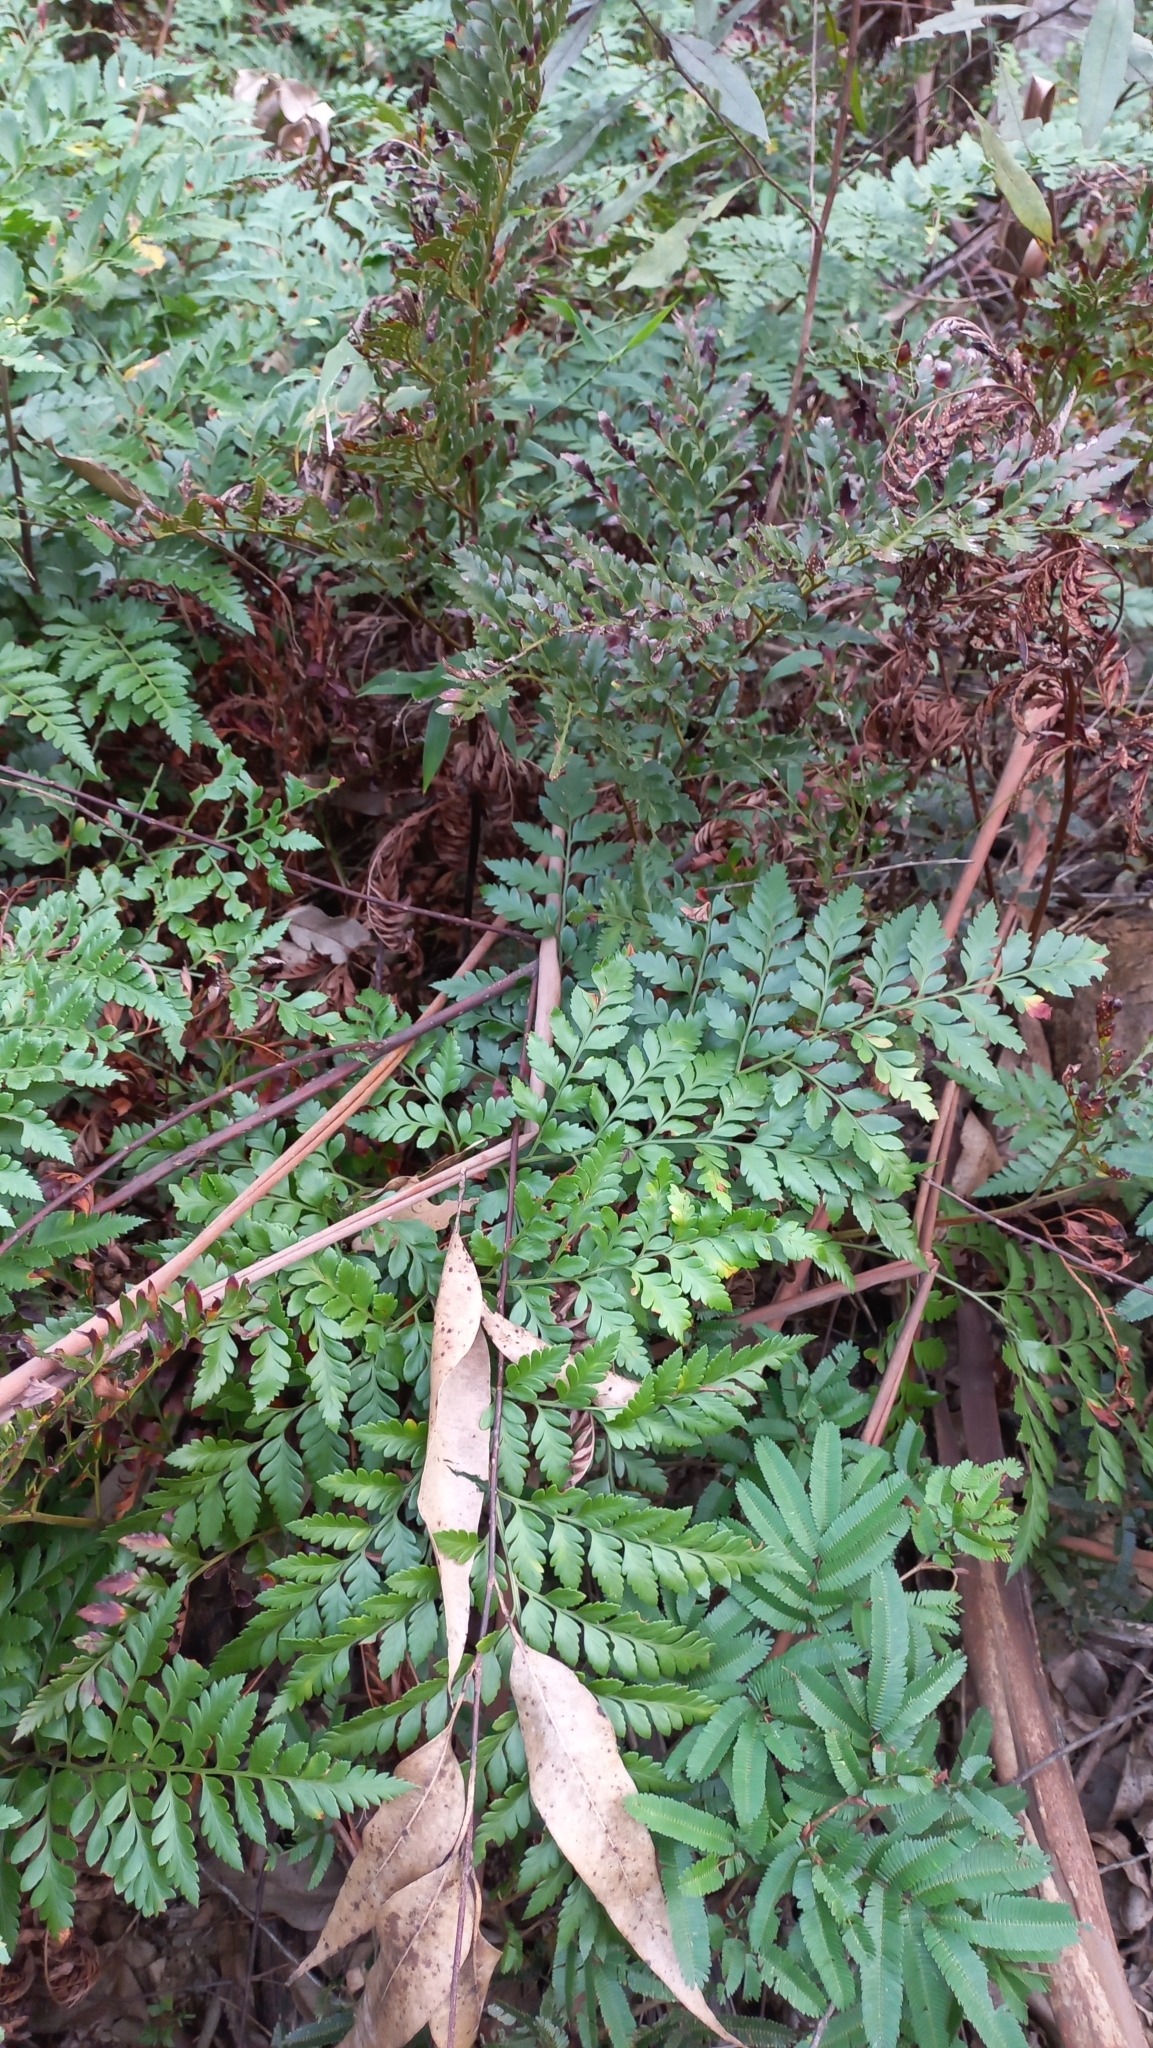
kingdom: Plantae
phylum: Tracheophyta
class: Polypodiopsida
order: Polypodiales
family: Dryopteridaceae
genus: Rumohra
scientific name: Rumohra adiantiformis
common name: Leather fern
